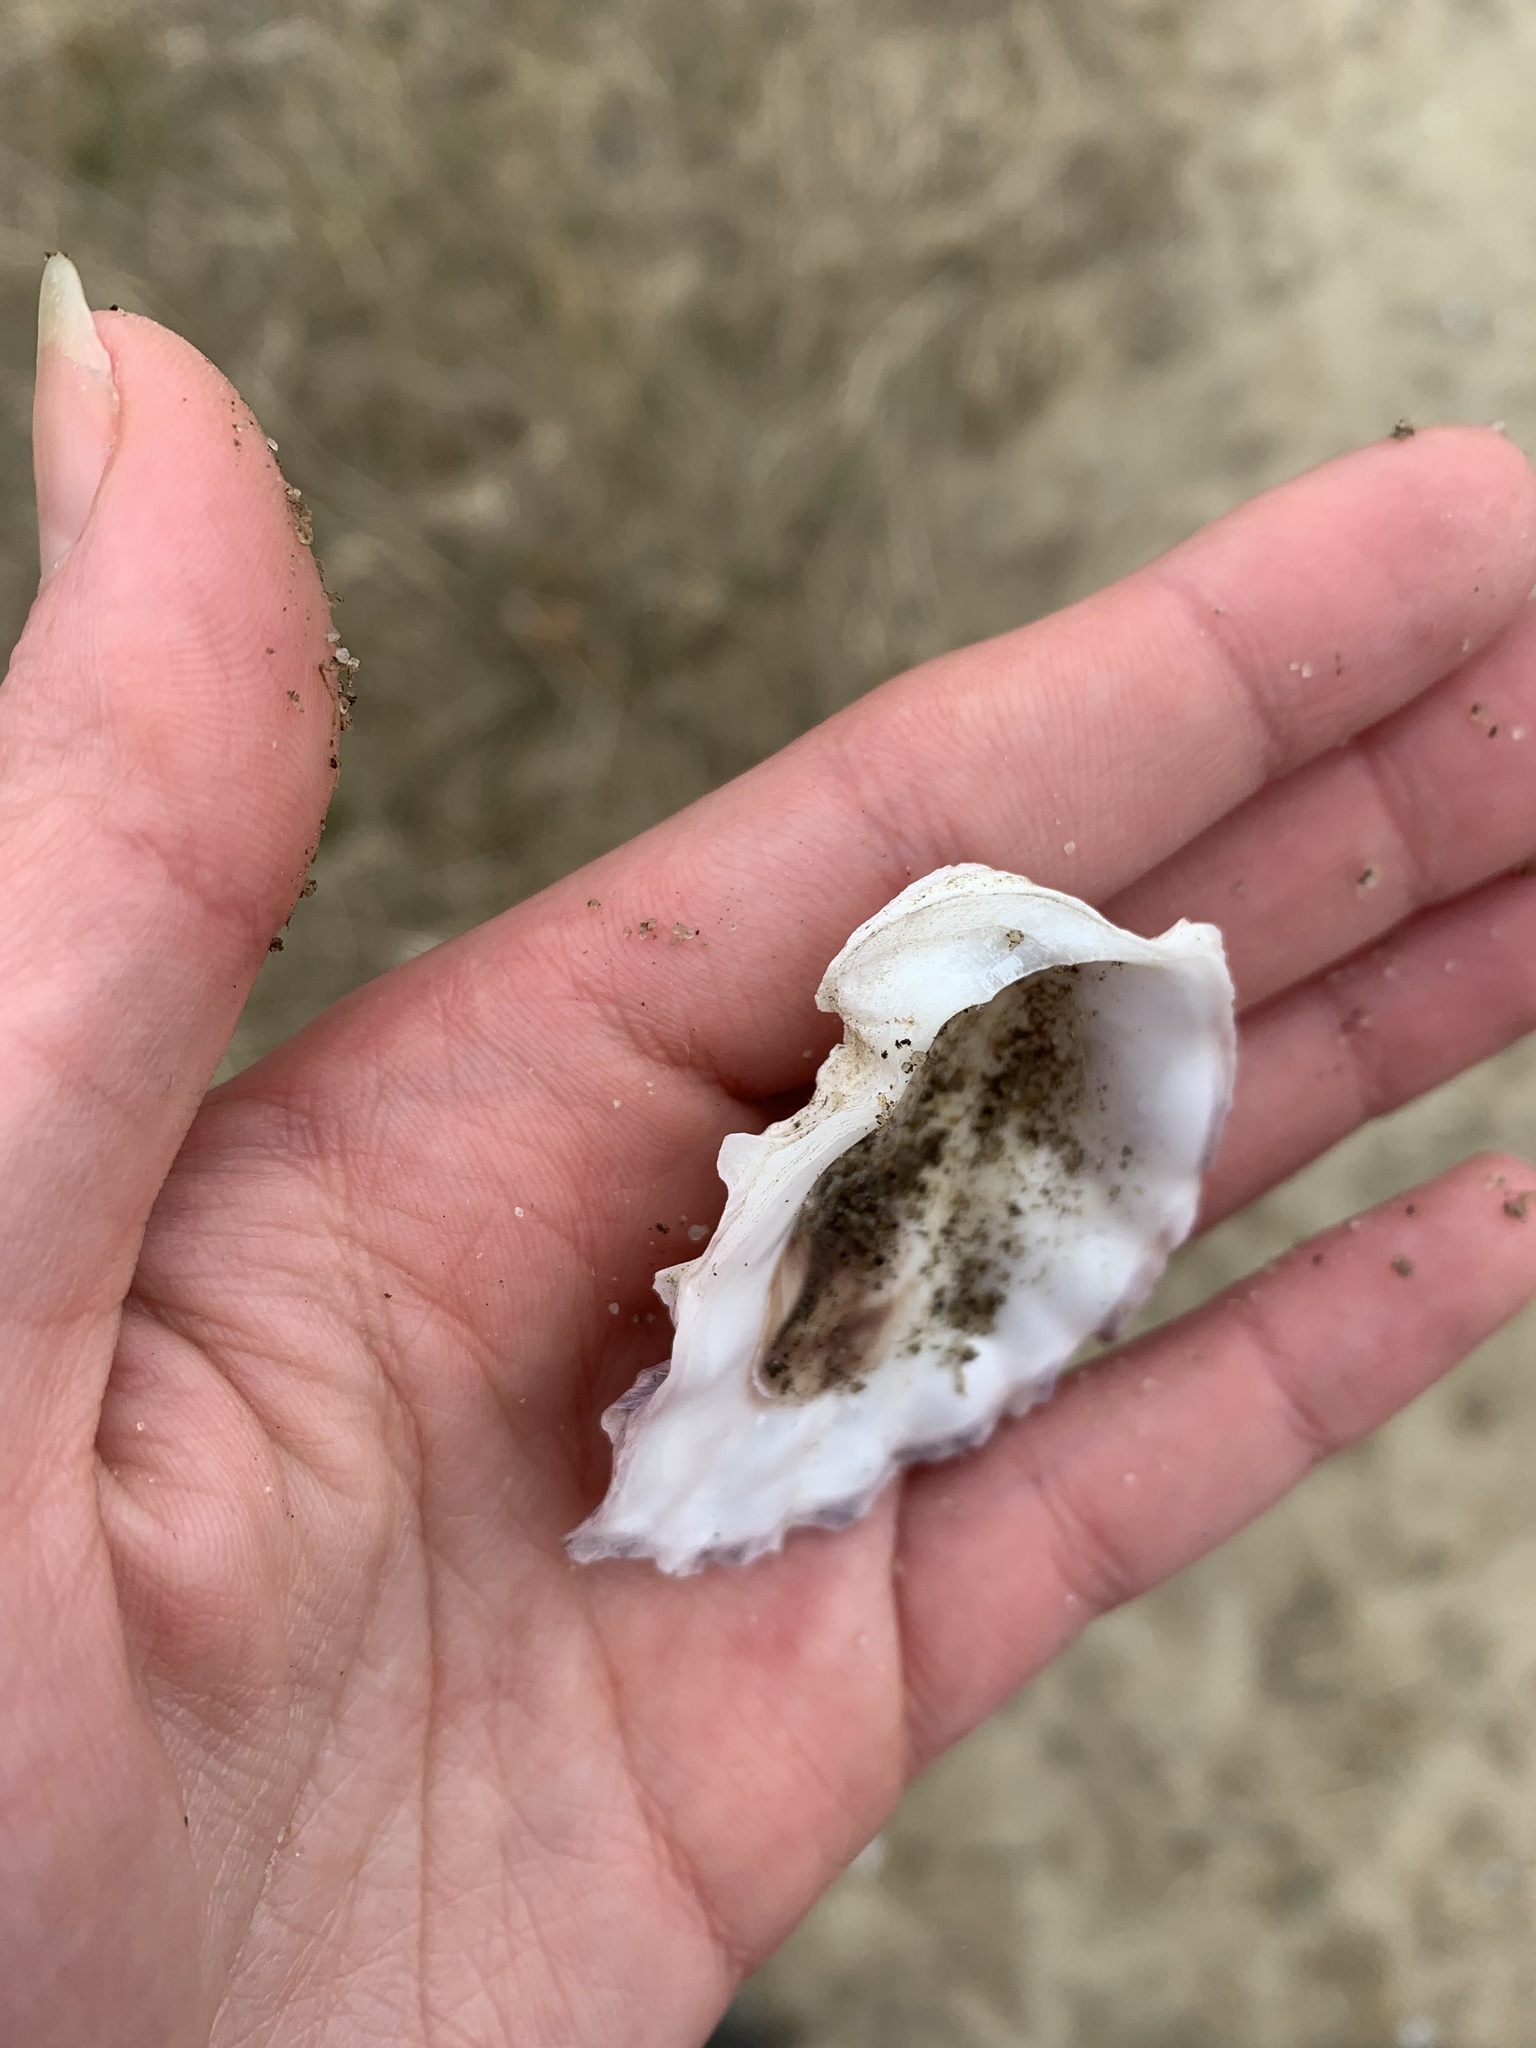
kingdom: Animalia
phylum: Mollusca
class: Bivalvia
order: Ostreida
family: Ostreidae
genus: Crassostrea
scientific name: Crassostrea virginica
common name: American oyster
